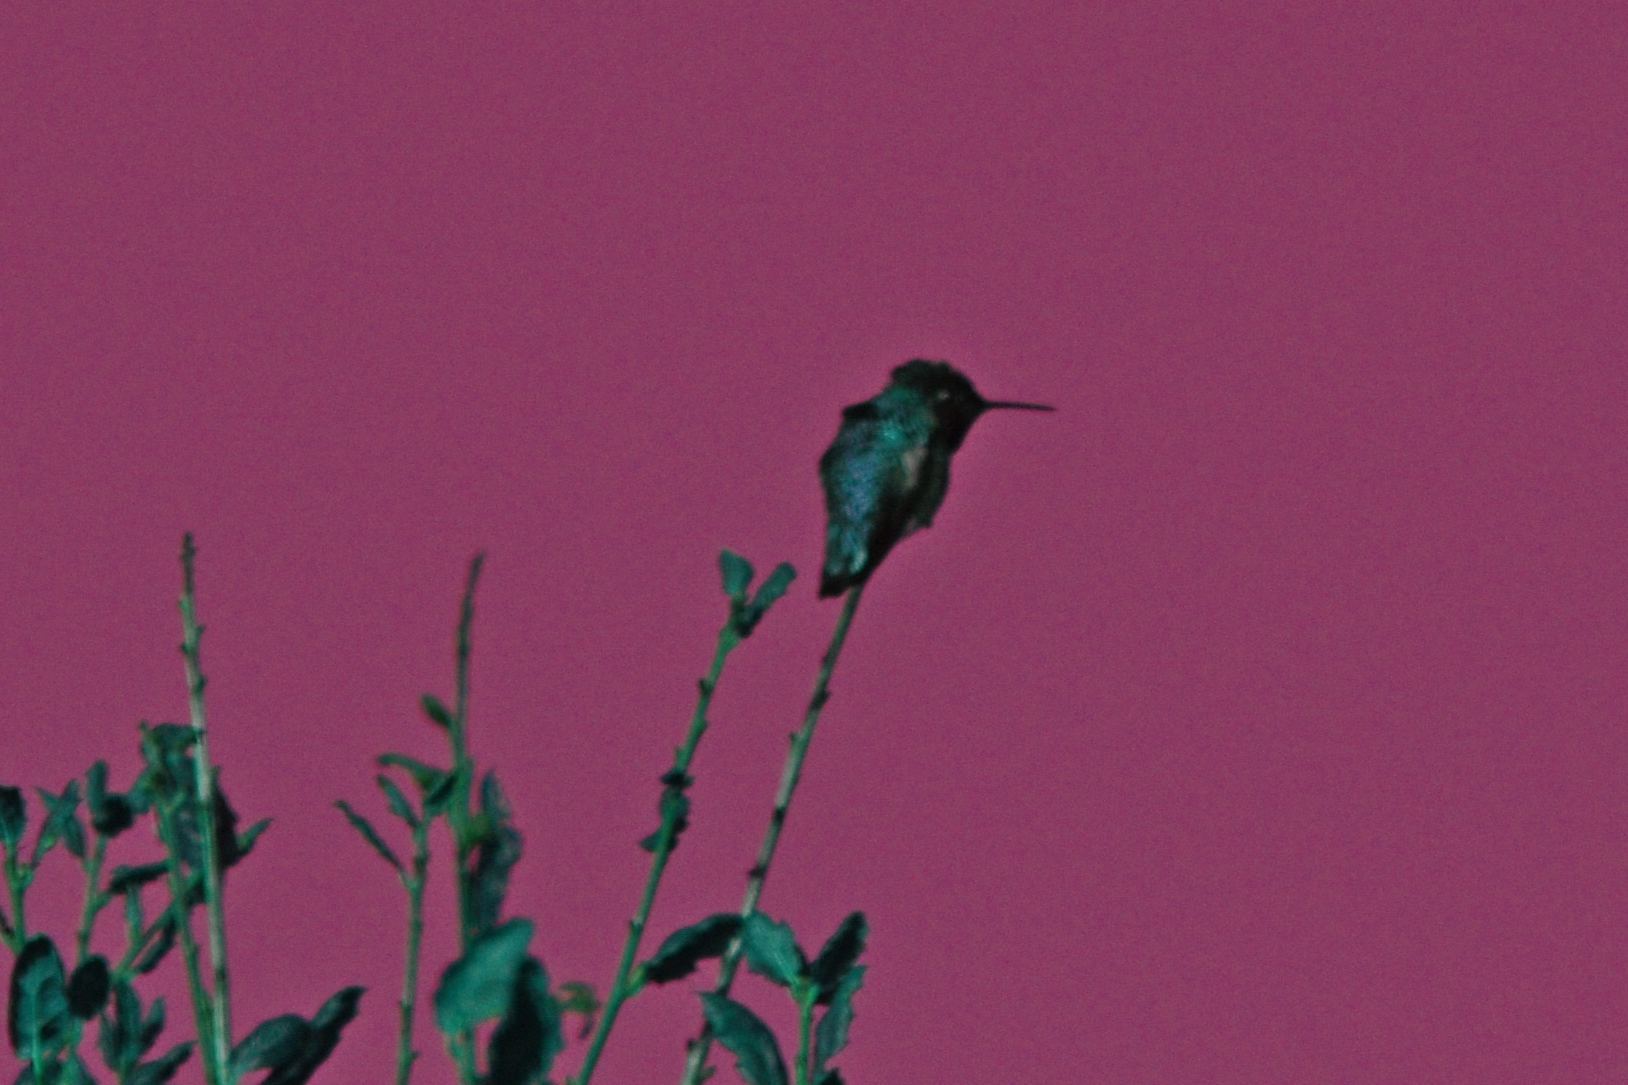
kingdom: Animalia
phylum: Chordata
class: Aves
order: Apodiformes
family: Trochilidae
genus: Calypte
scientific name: Calypte anna
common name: Anna's hummingbird
